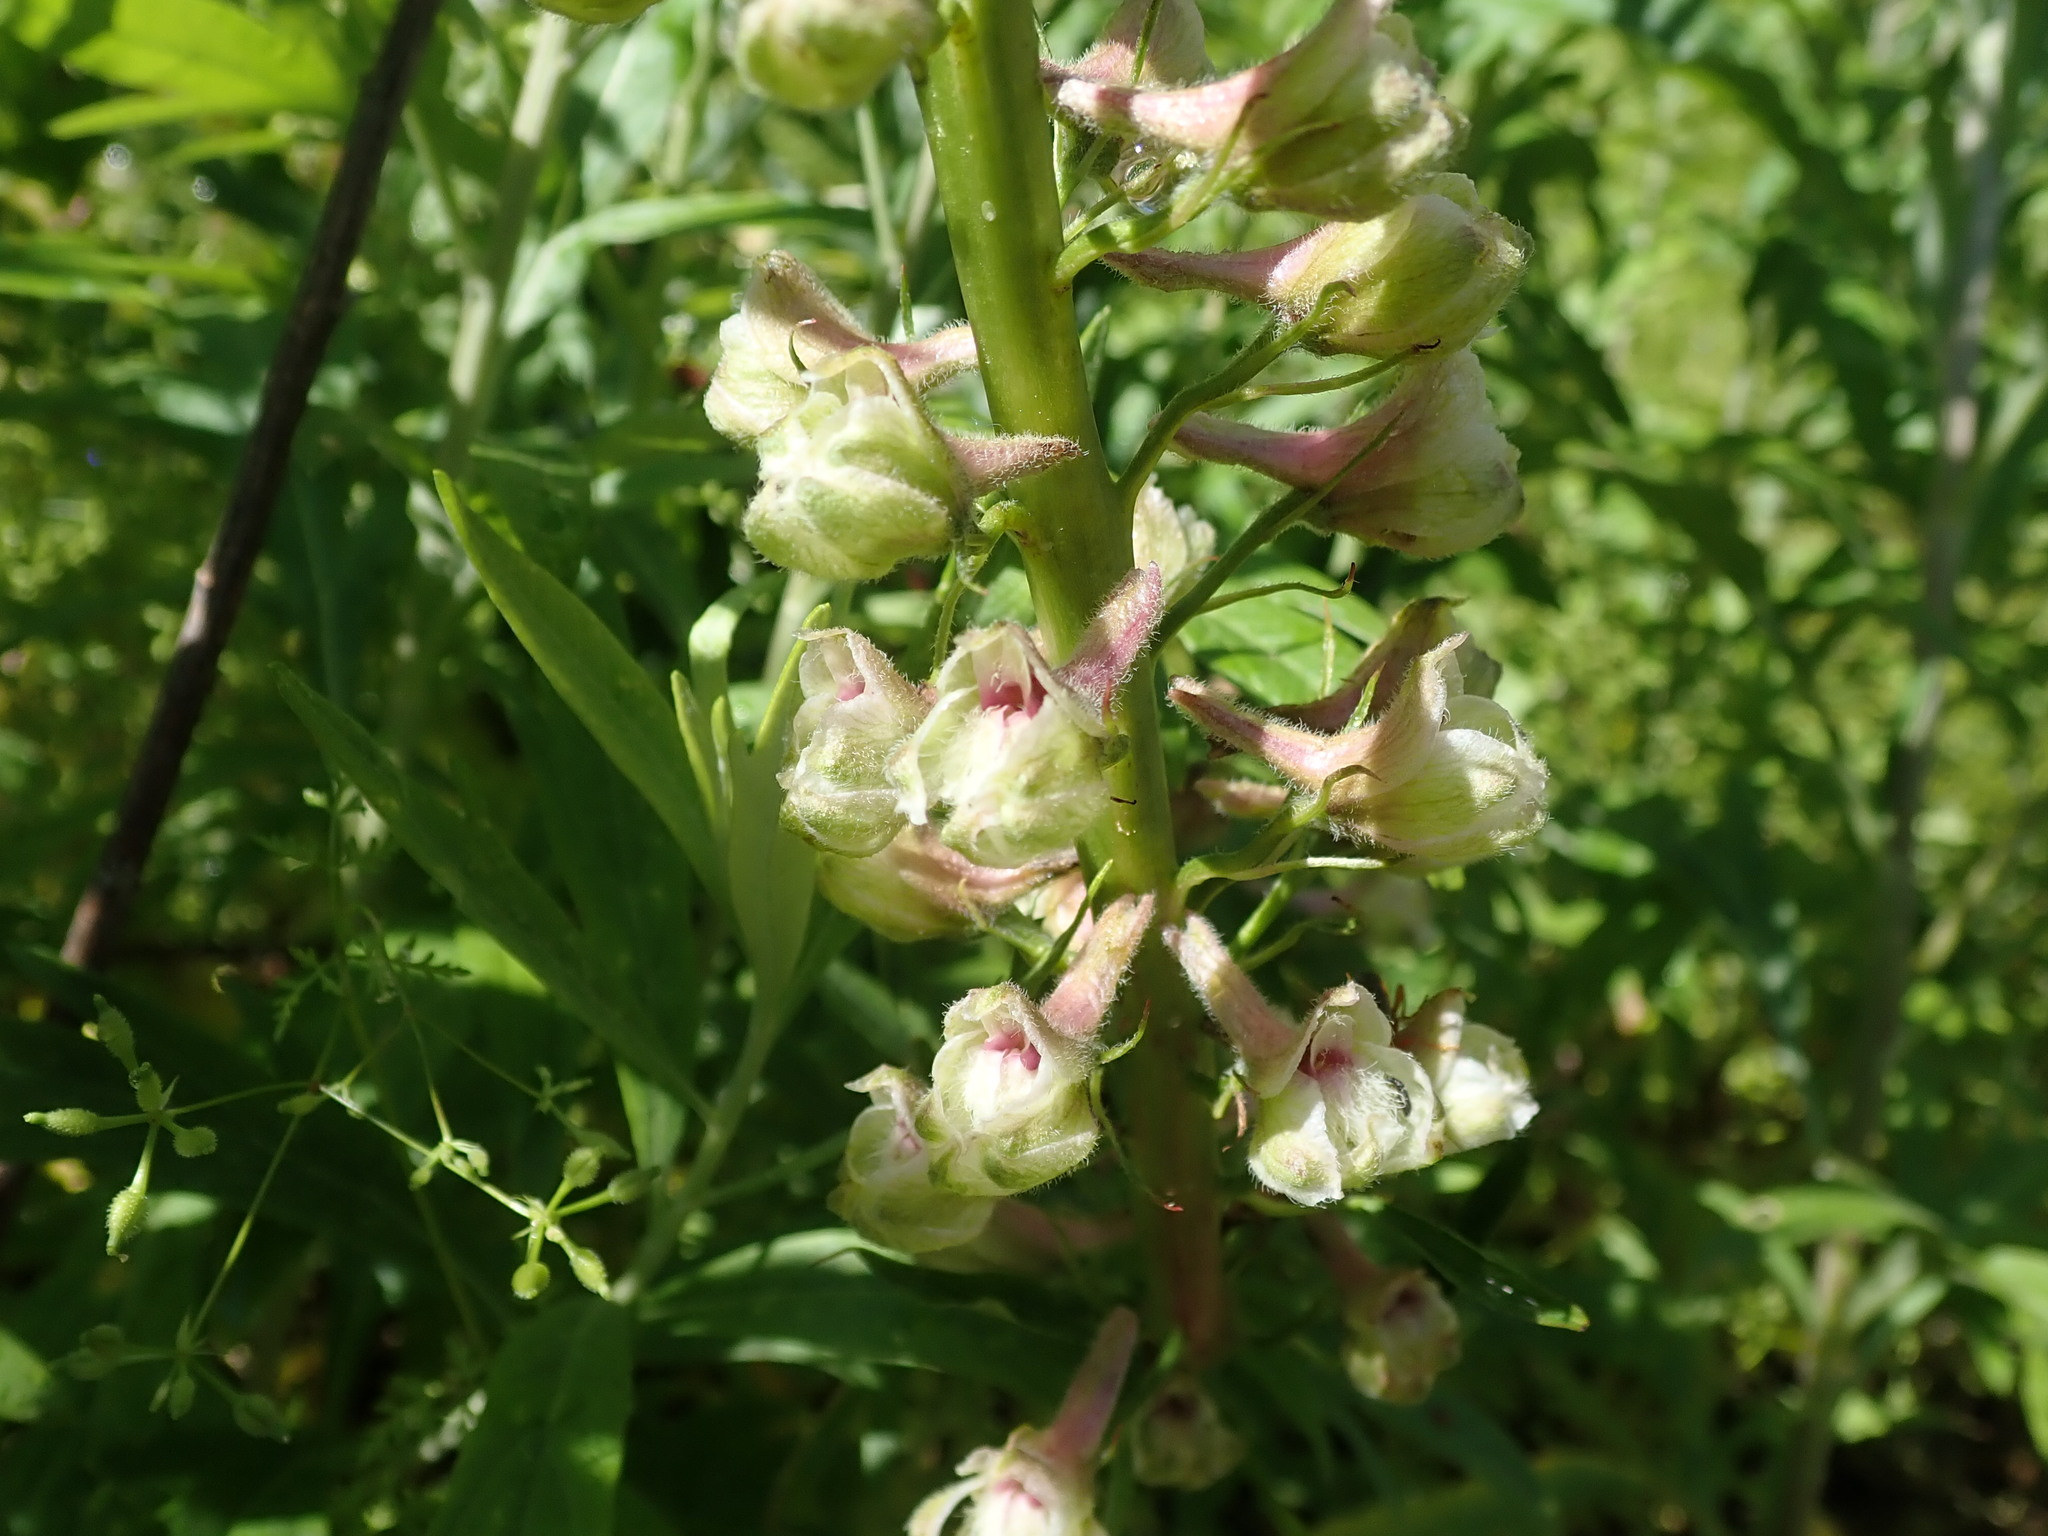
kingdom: Plantae
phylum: Tracheophyta
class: Magnoliopsida
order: Ranunculales
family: Ranunculaceae
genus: Delphinium
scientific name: Delphinium californicum
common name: California larkspur
